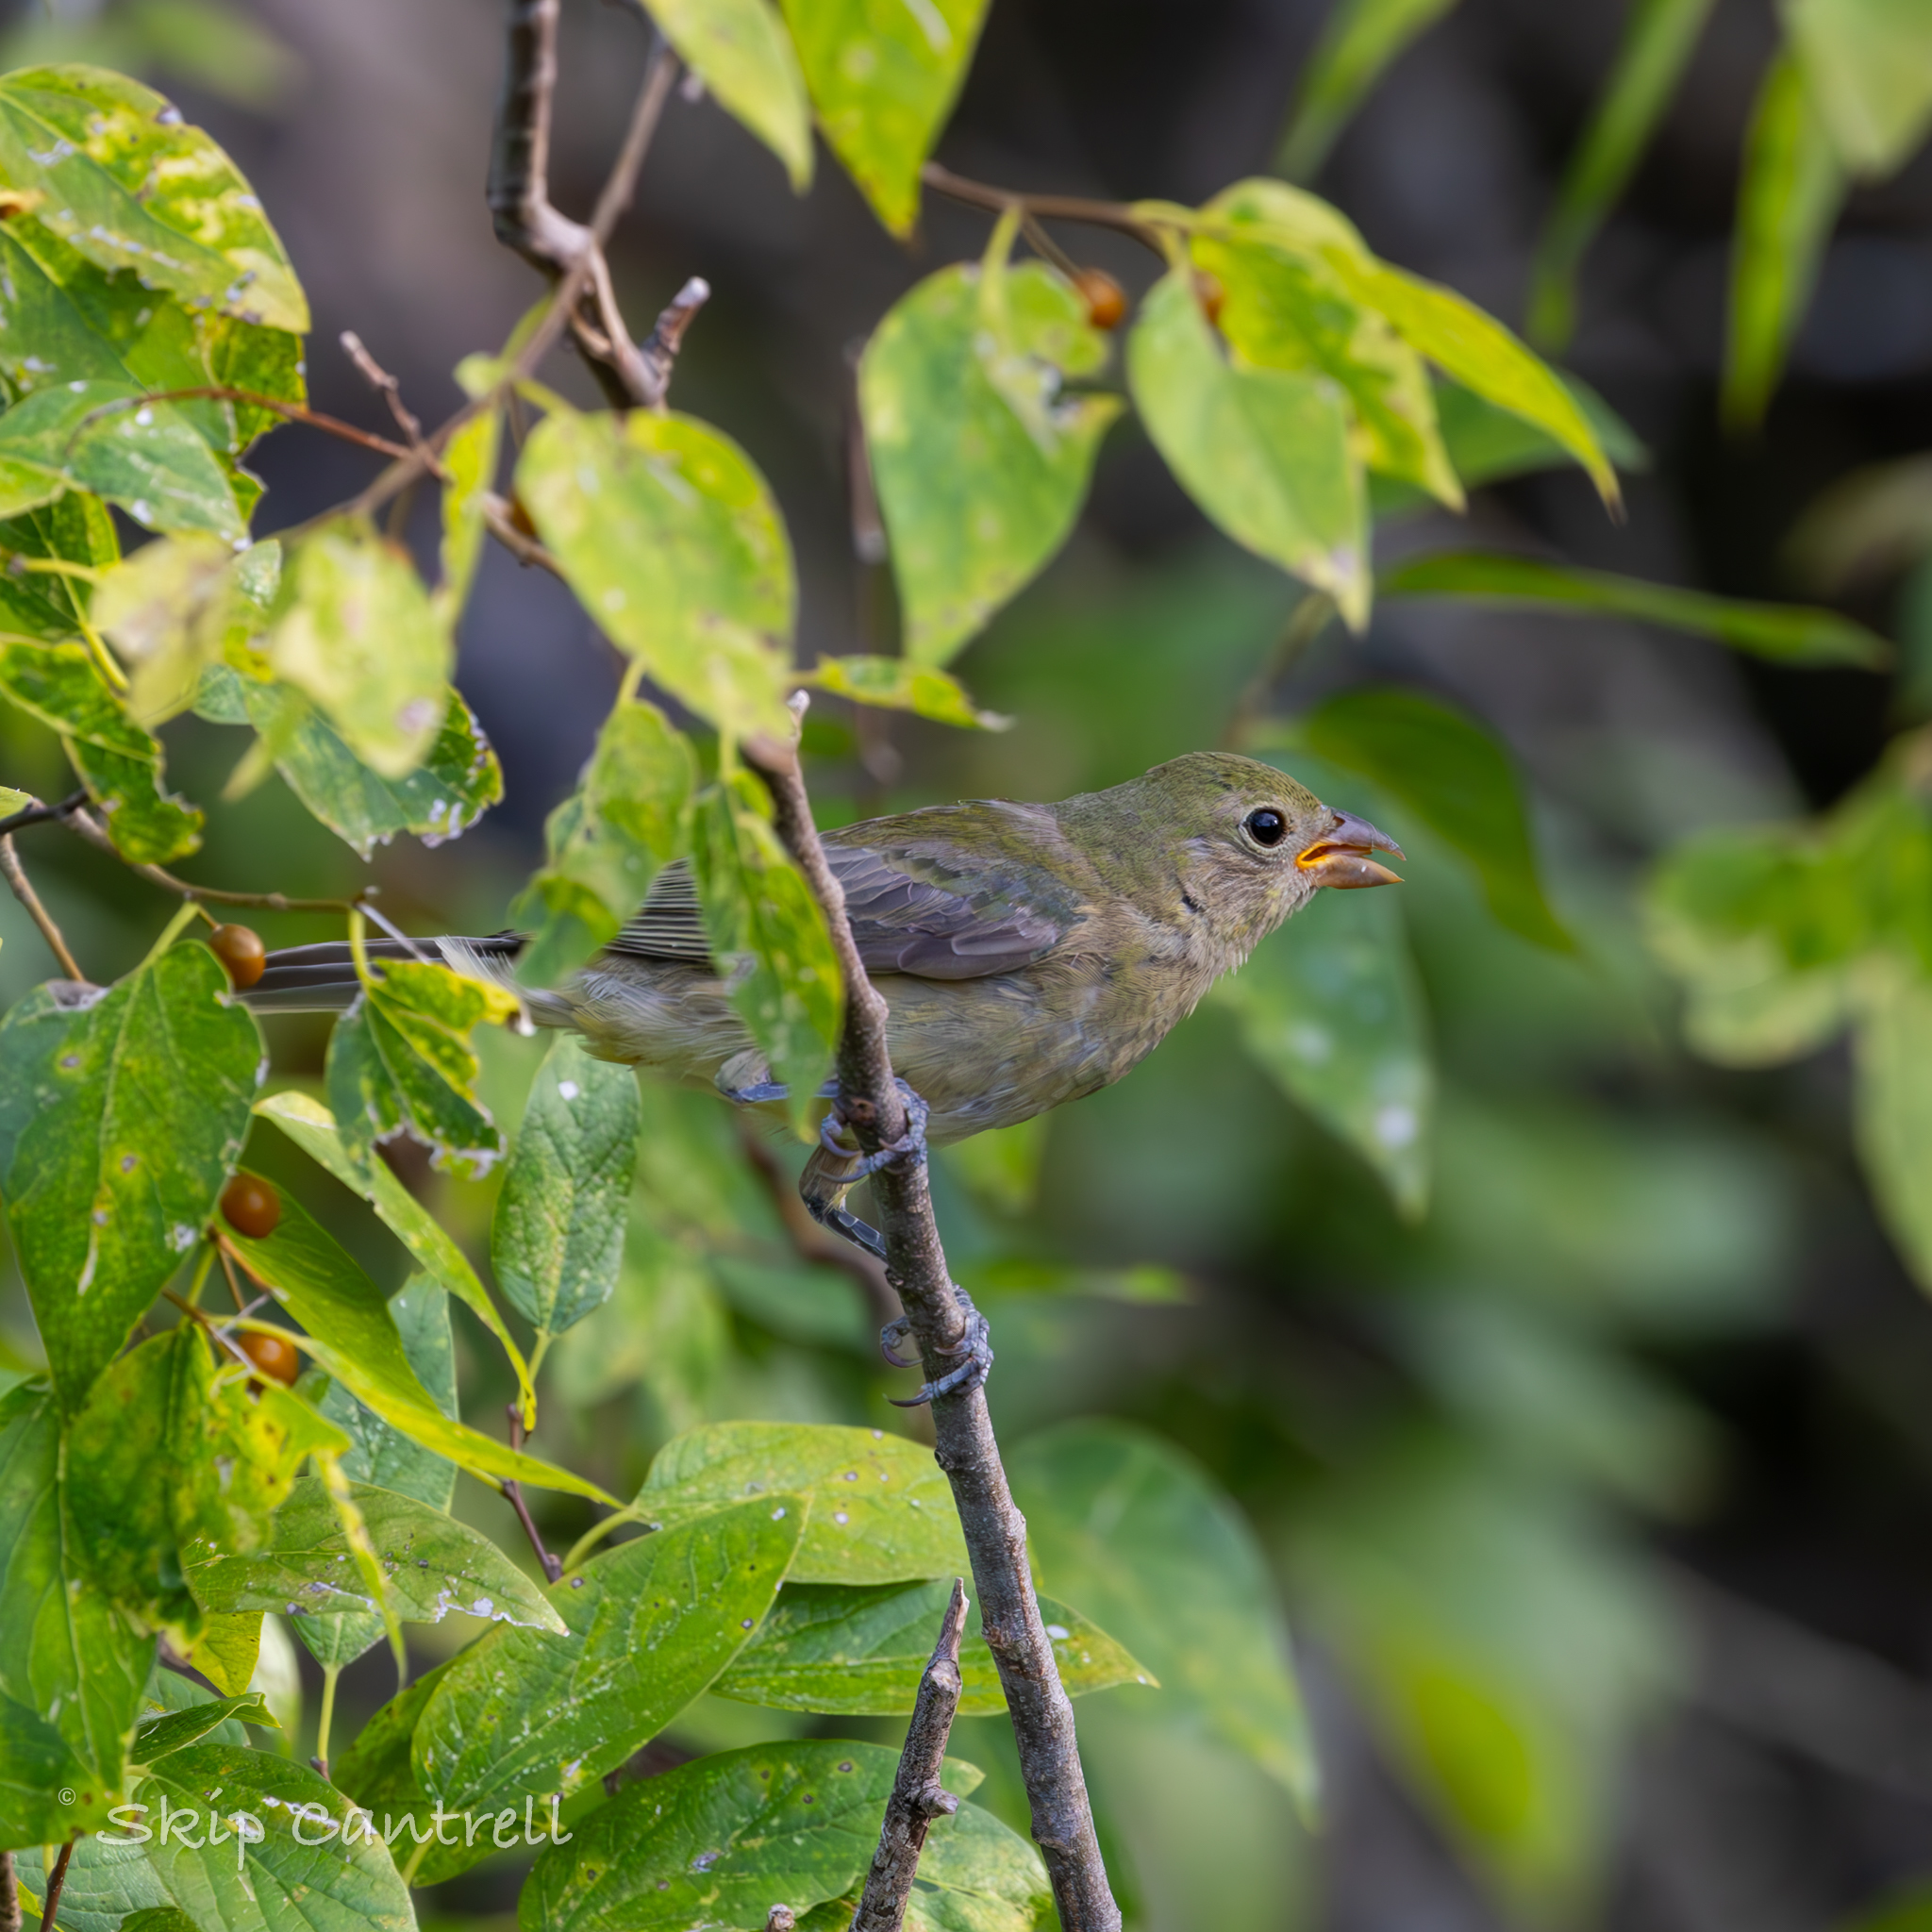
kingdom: Animalia
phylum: Chordata
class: Aves
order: Passeriformes
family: Cardinalidae
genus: Passerina
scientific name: Passerina ciris
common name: Painted bunting
